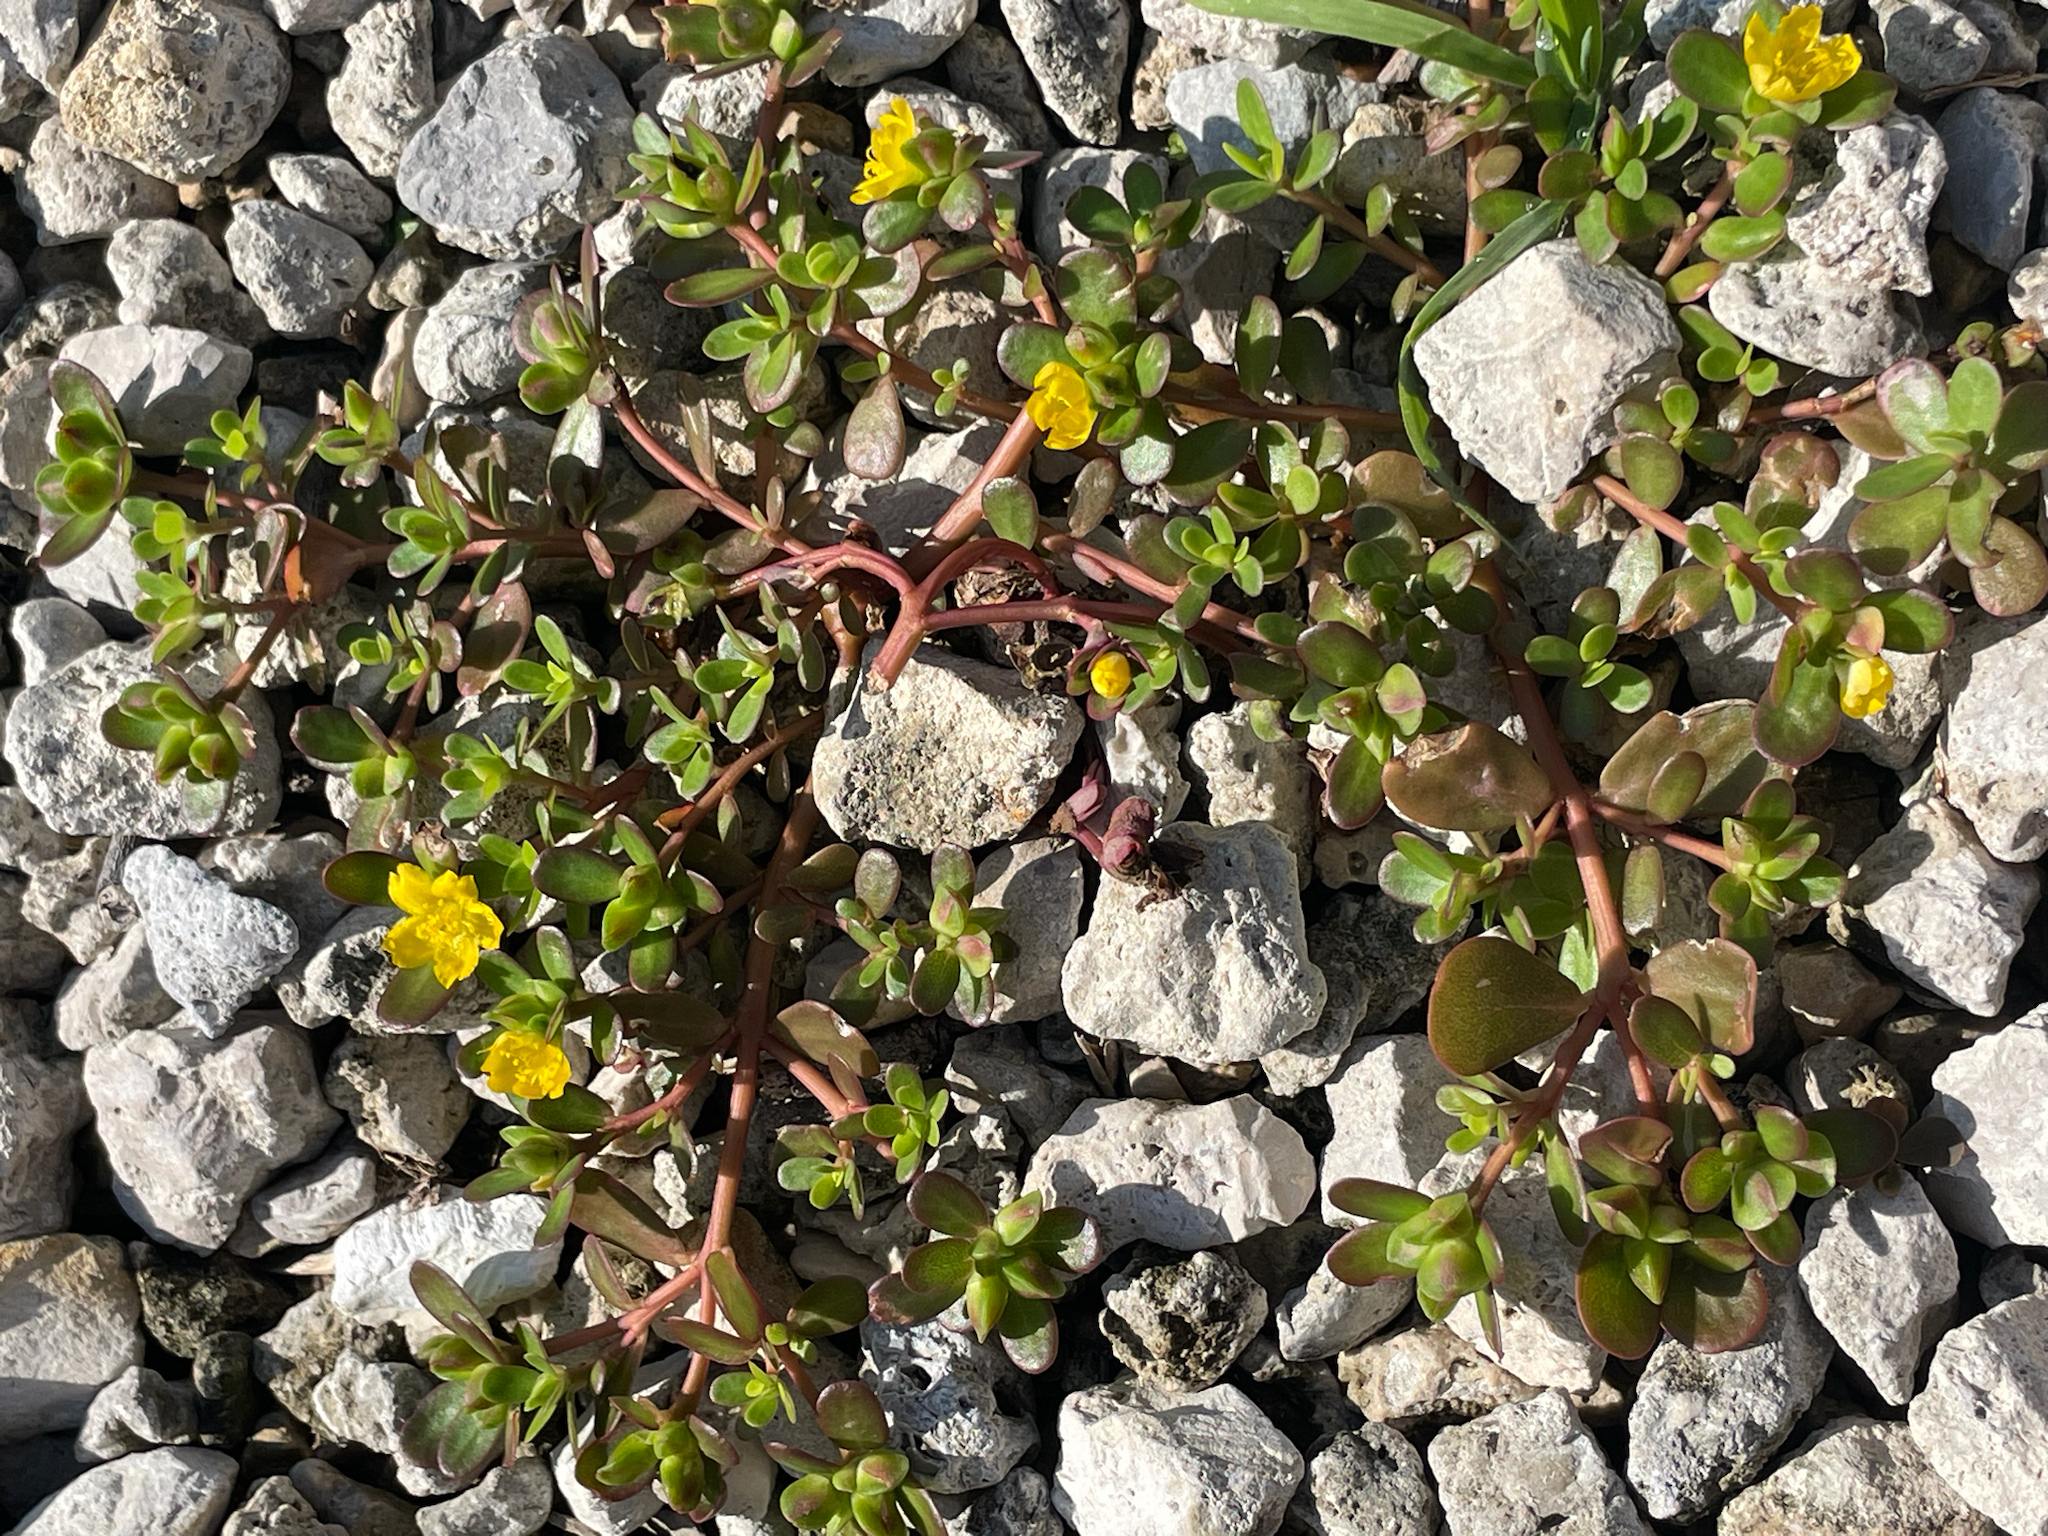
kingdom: Plantae
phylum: Tracheophyta
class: Magnoliopsida
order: Caryophyllales
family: Portulacaceae
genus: Portulaca
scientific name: Portulaca oleracea
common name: Common purslane
